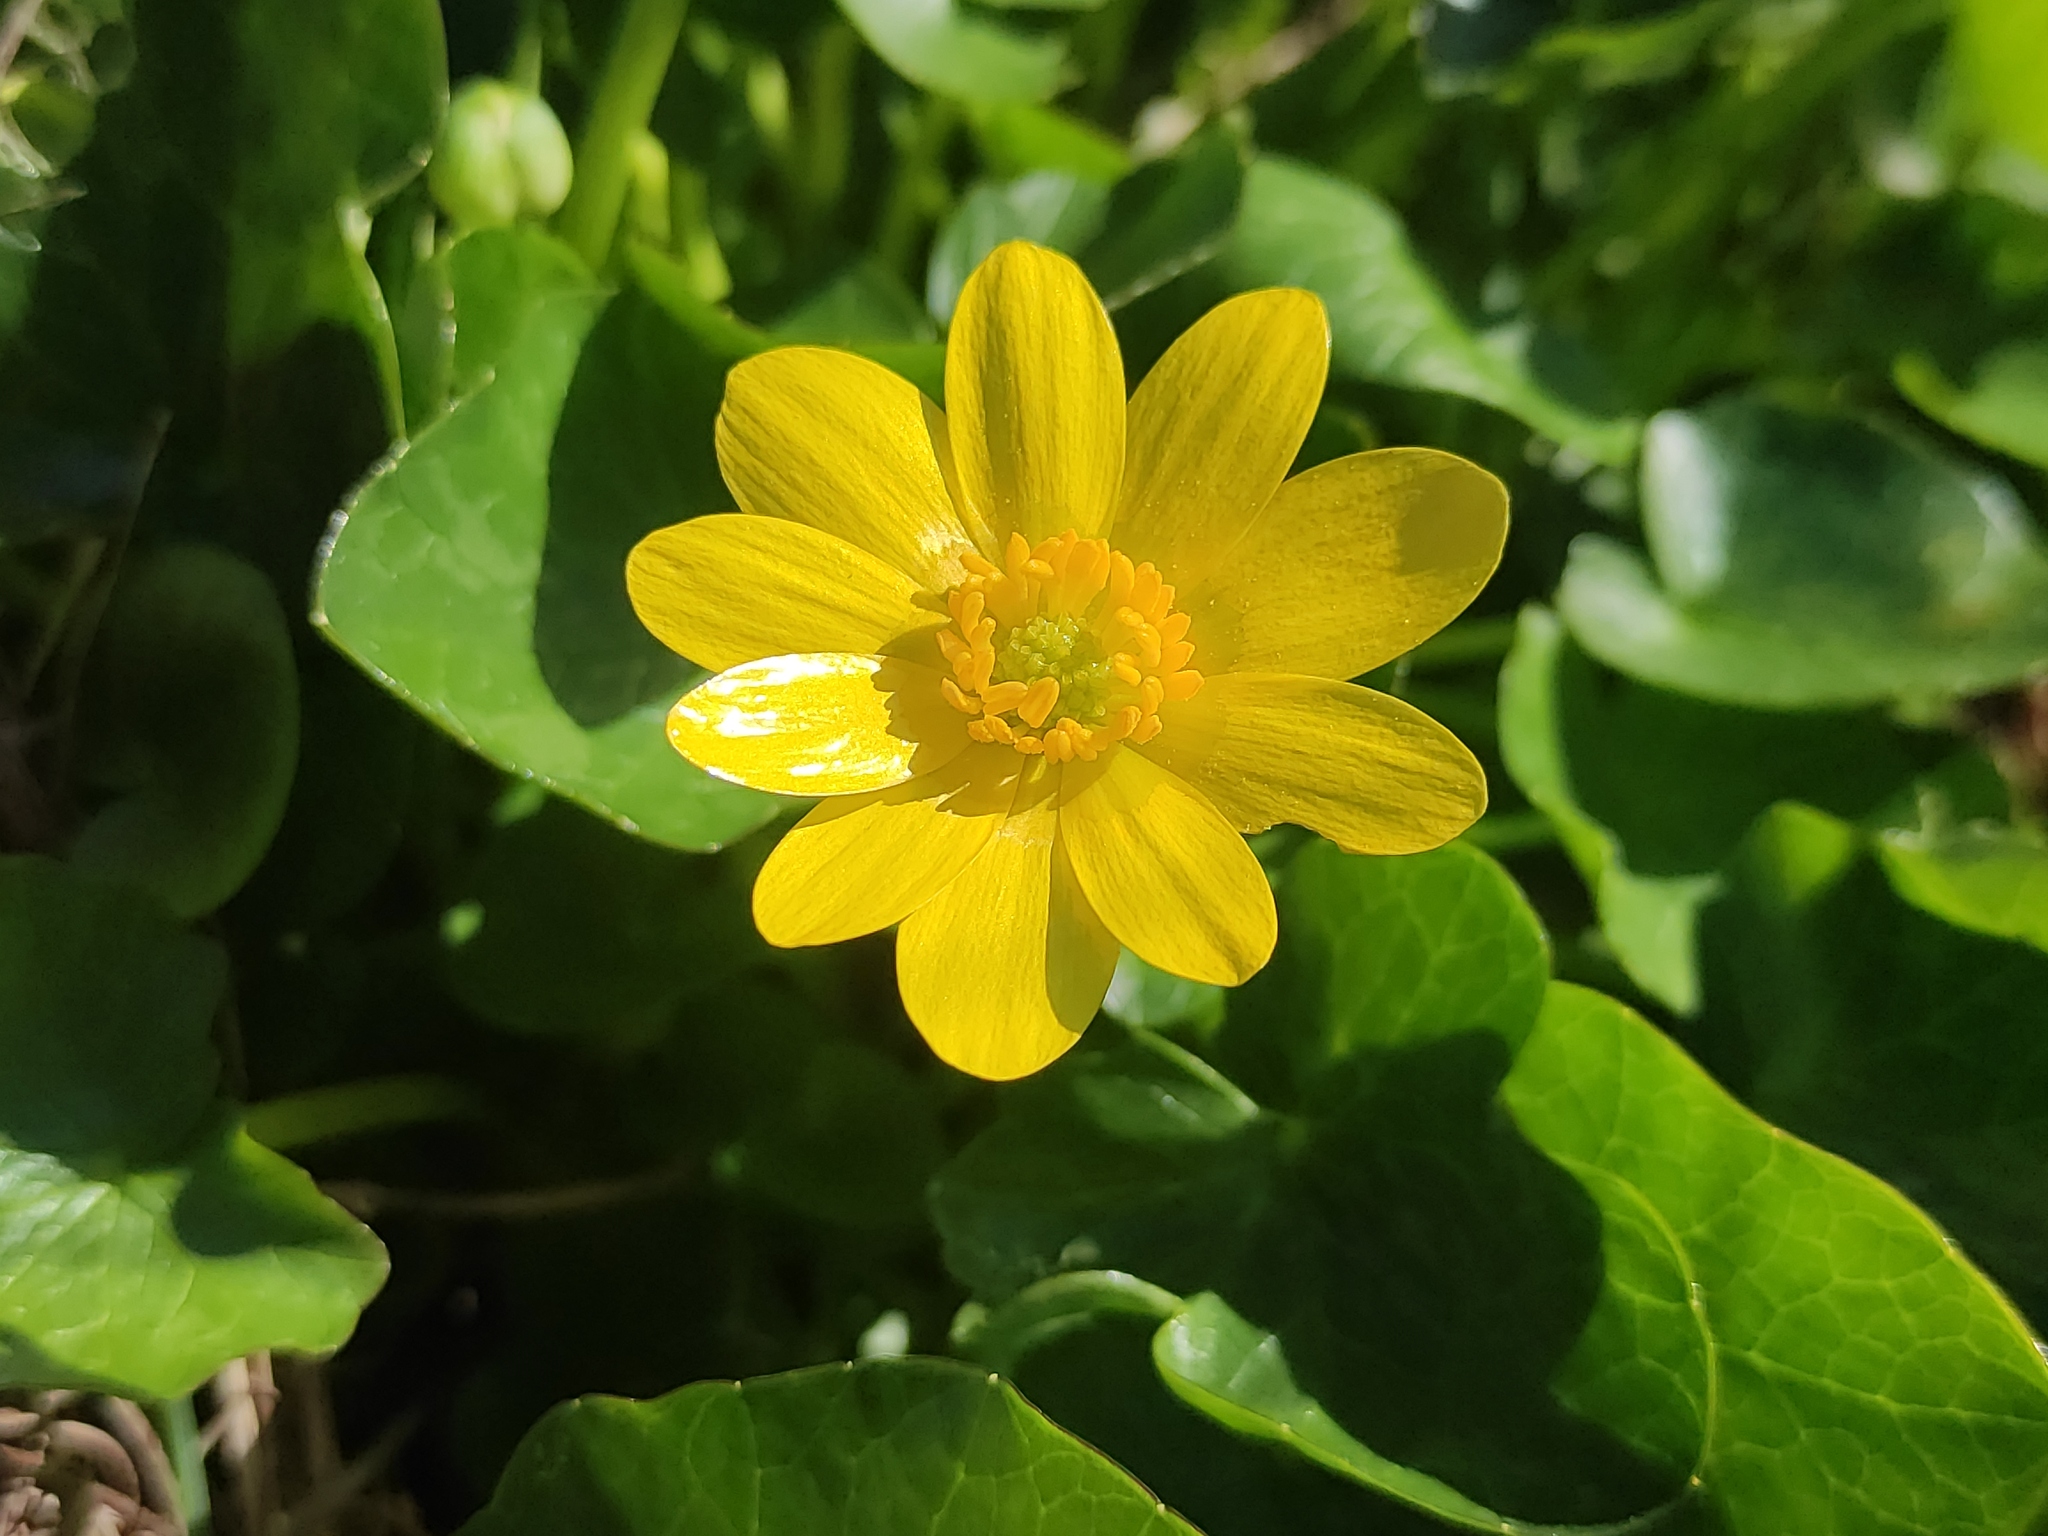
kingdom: Plantae
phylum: Tracheophyta
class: Magnoliopsida
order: Ranunculales
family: Ranunculaceae
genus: Ficaria
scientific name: Ficaria verna
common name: Lesser celandine
